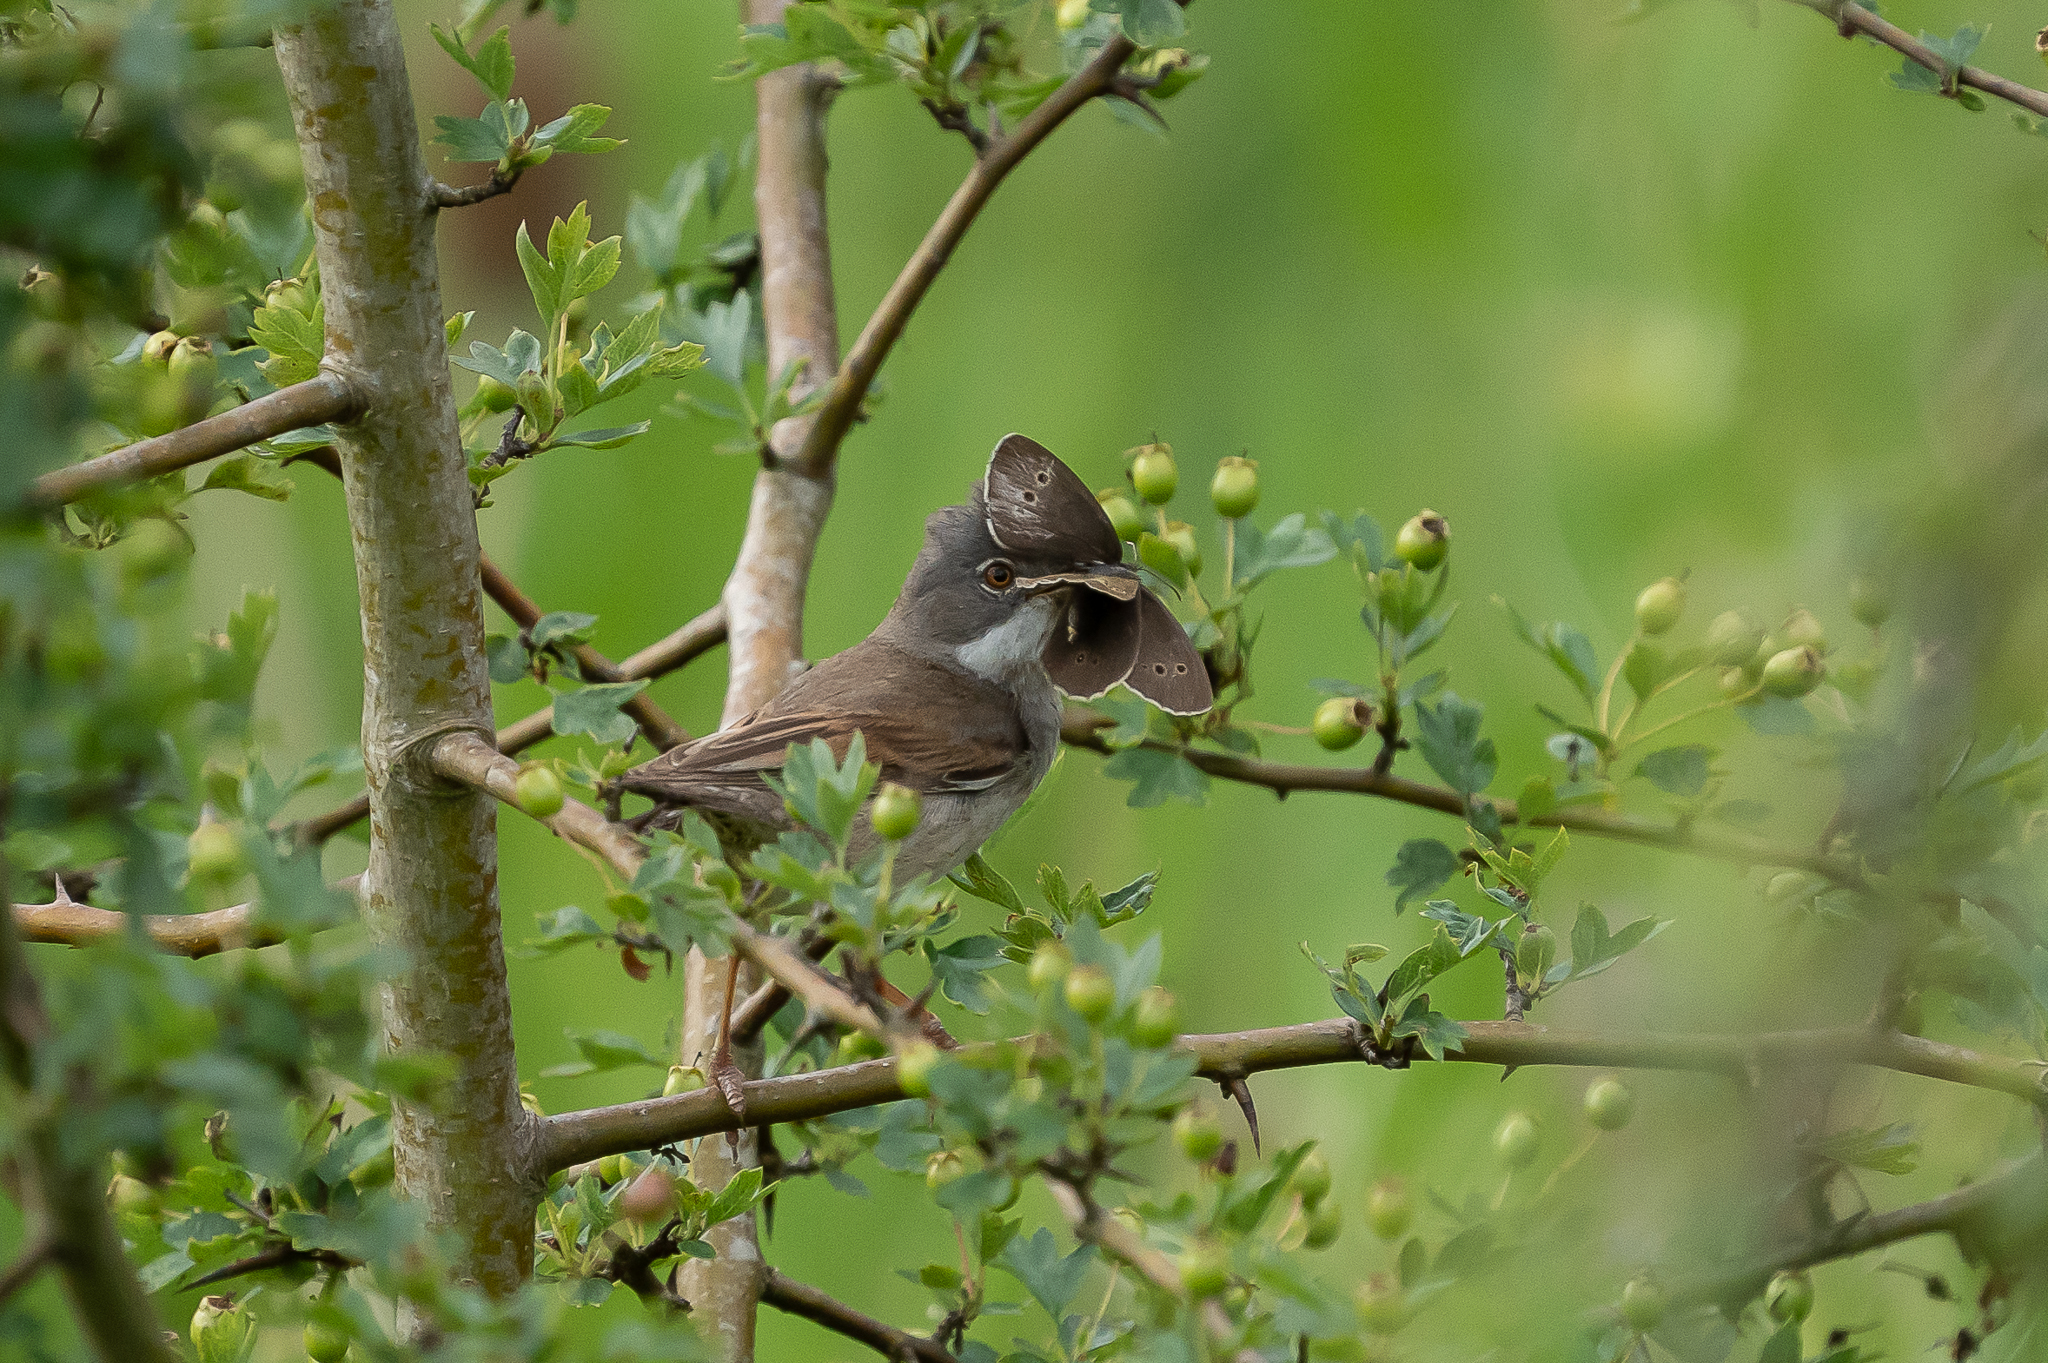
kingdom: Animalia
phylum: Chordata
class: Aves
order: Passeriformes
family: Sylviidae
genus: Sylvia
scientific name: Sylvia communis
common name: Common whitethroat
